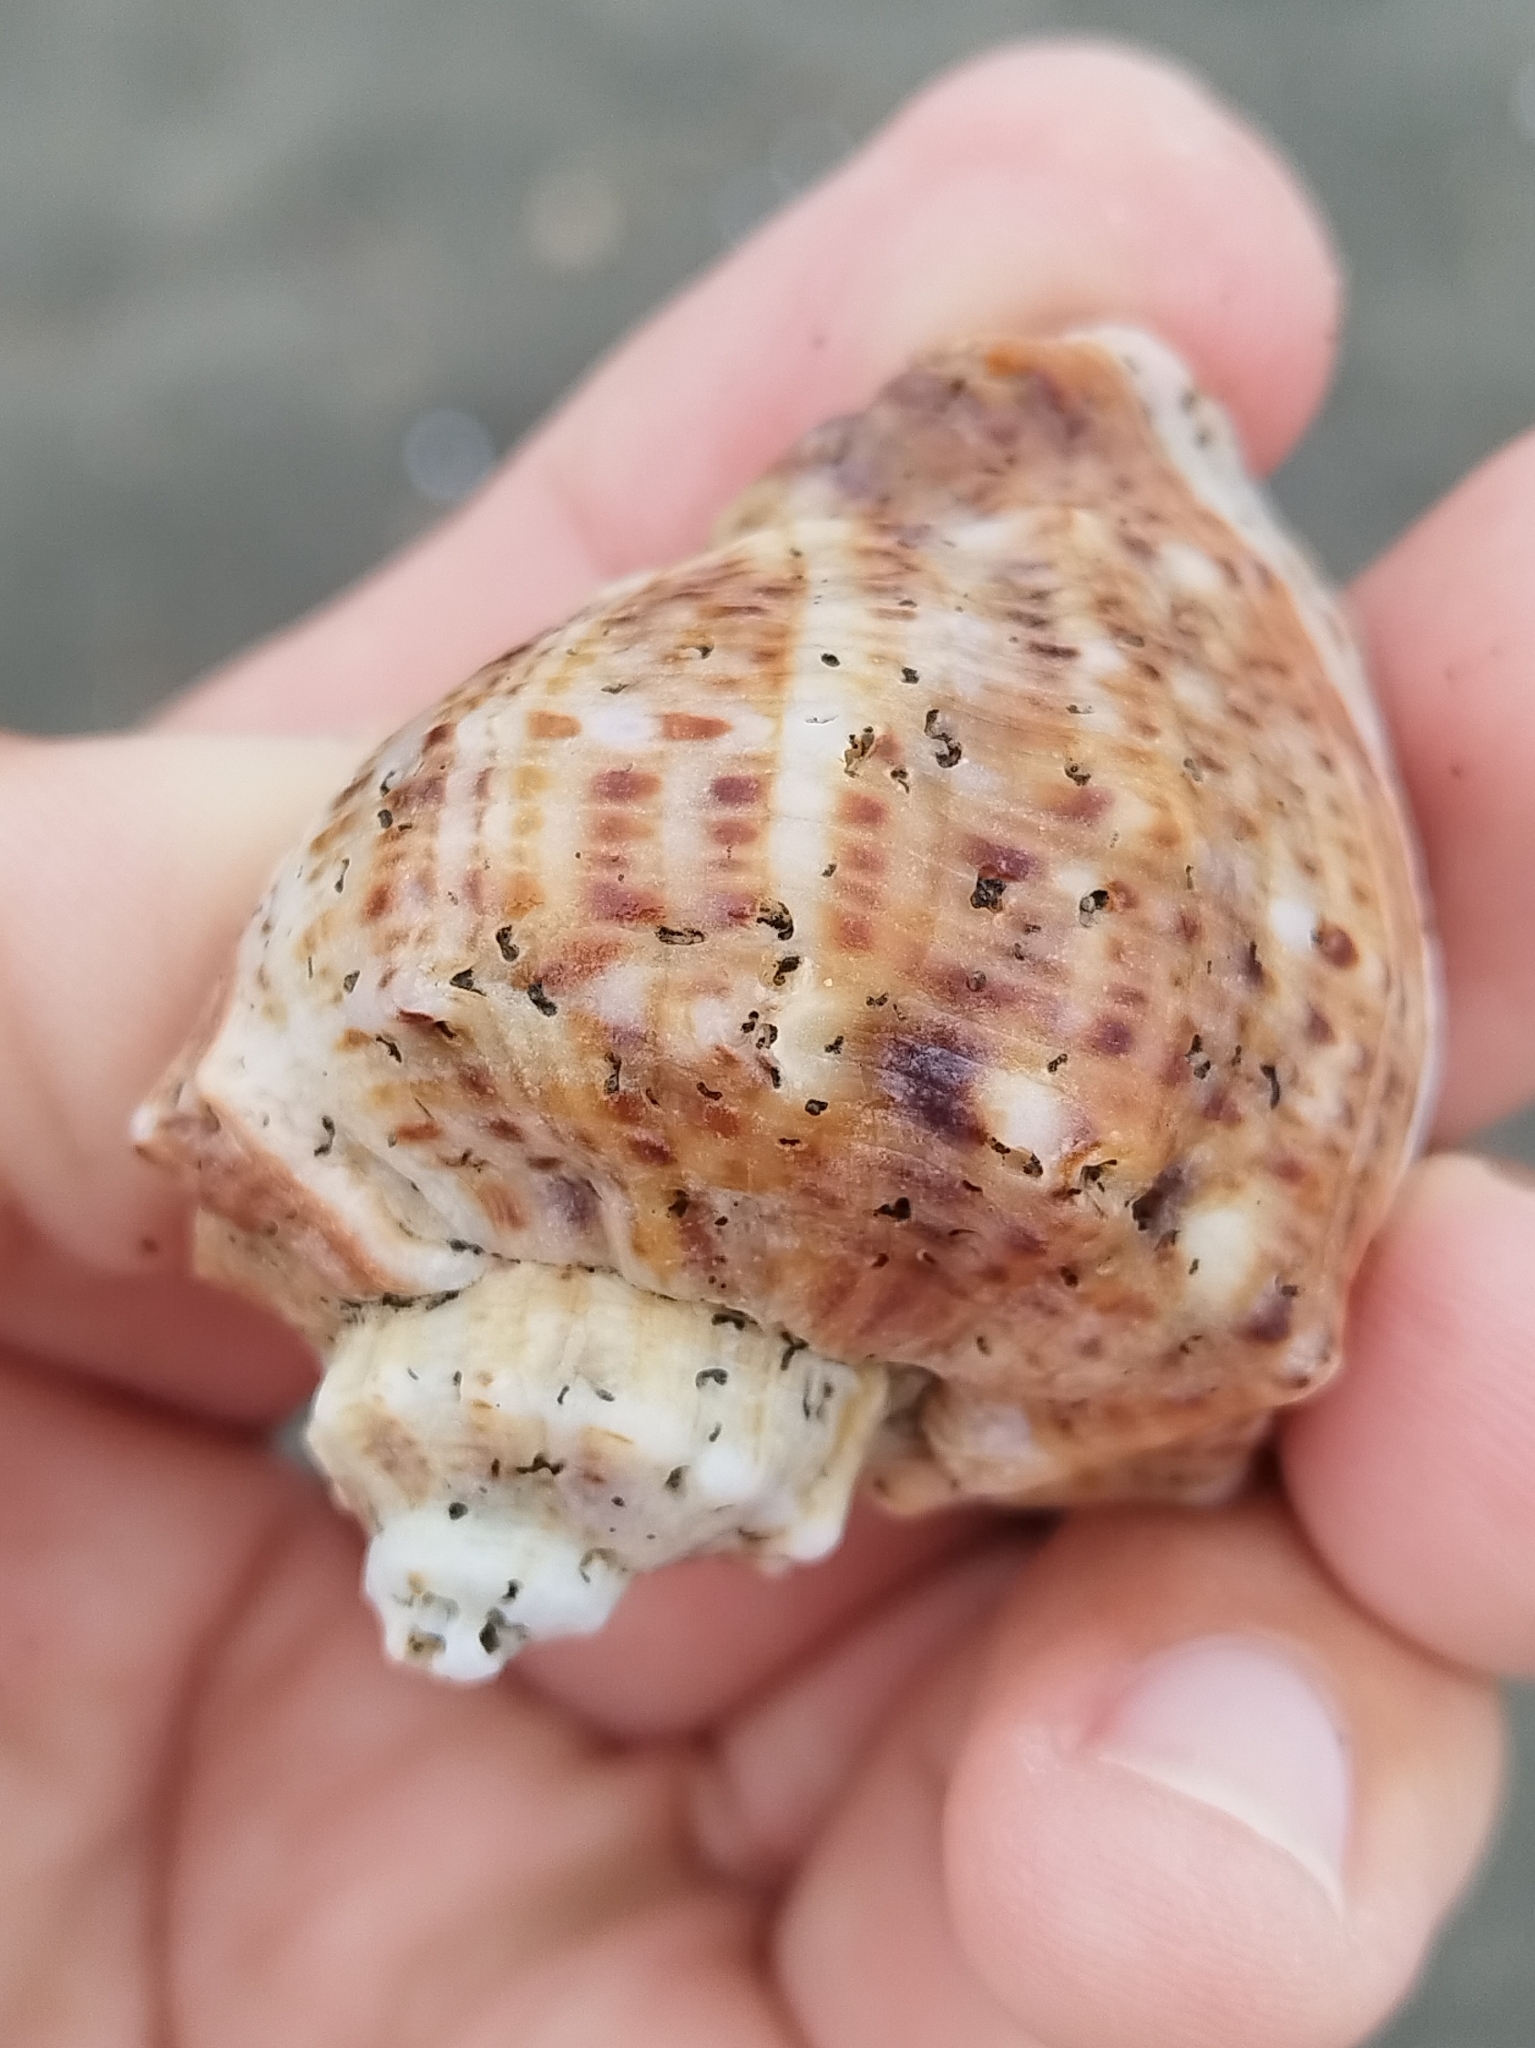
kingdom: Animalia
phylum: Mollusca
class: Gastropoda
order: Neogastropoda
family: Muricidae
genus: Rapana
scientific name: Rapana venosa
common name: Veined rapa whelk
